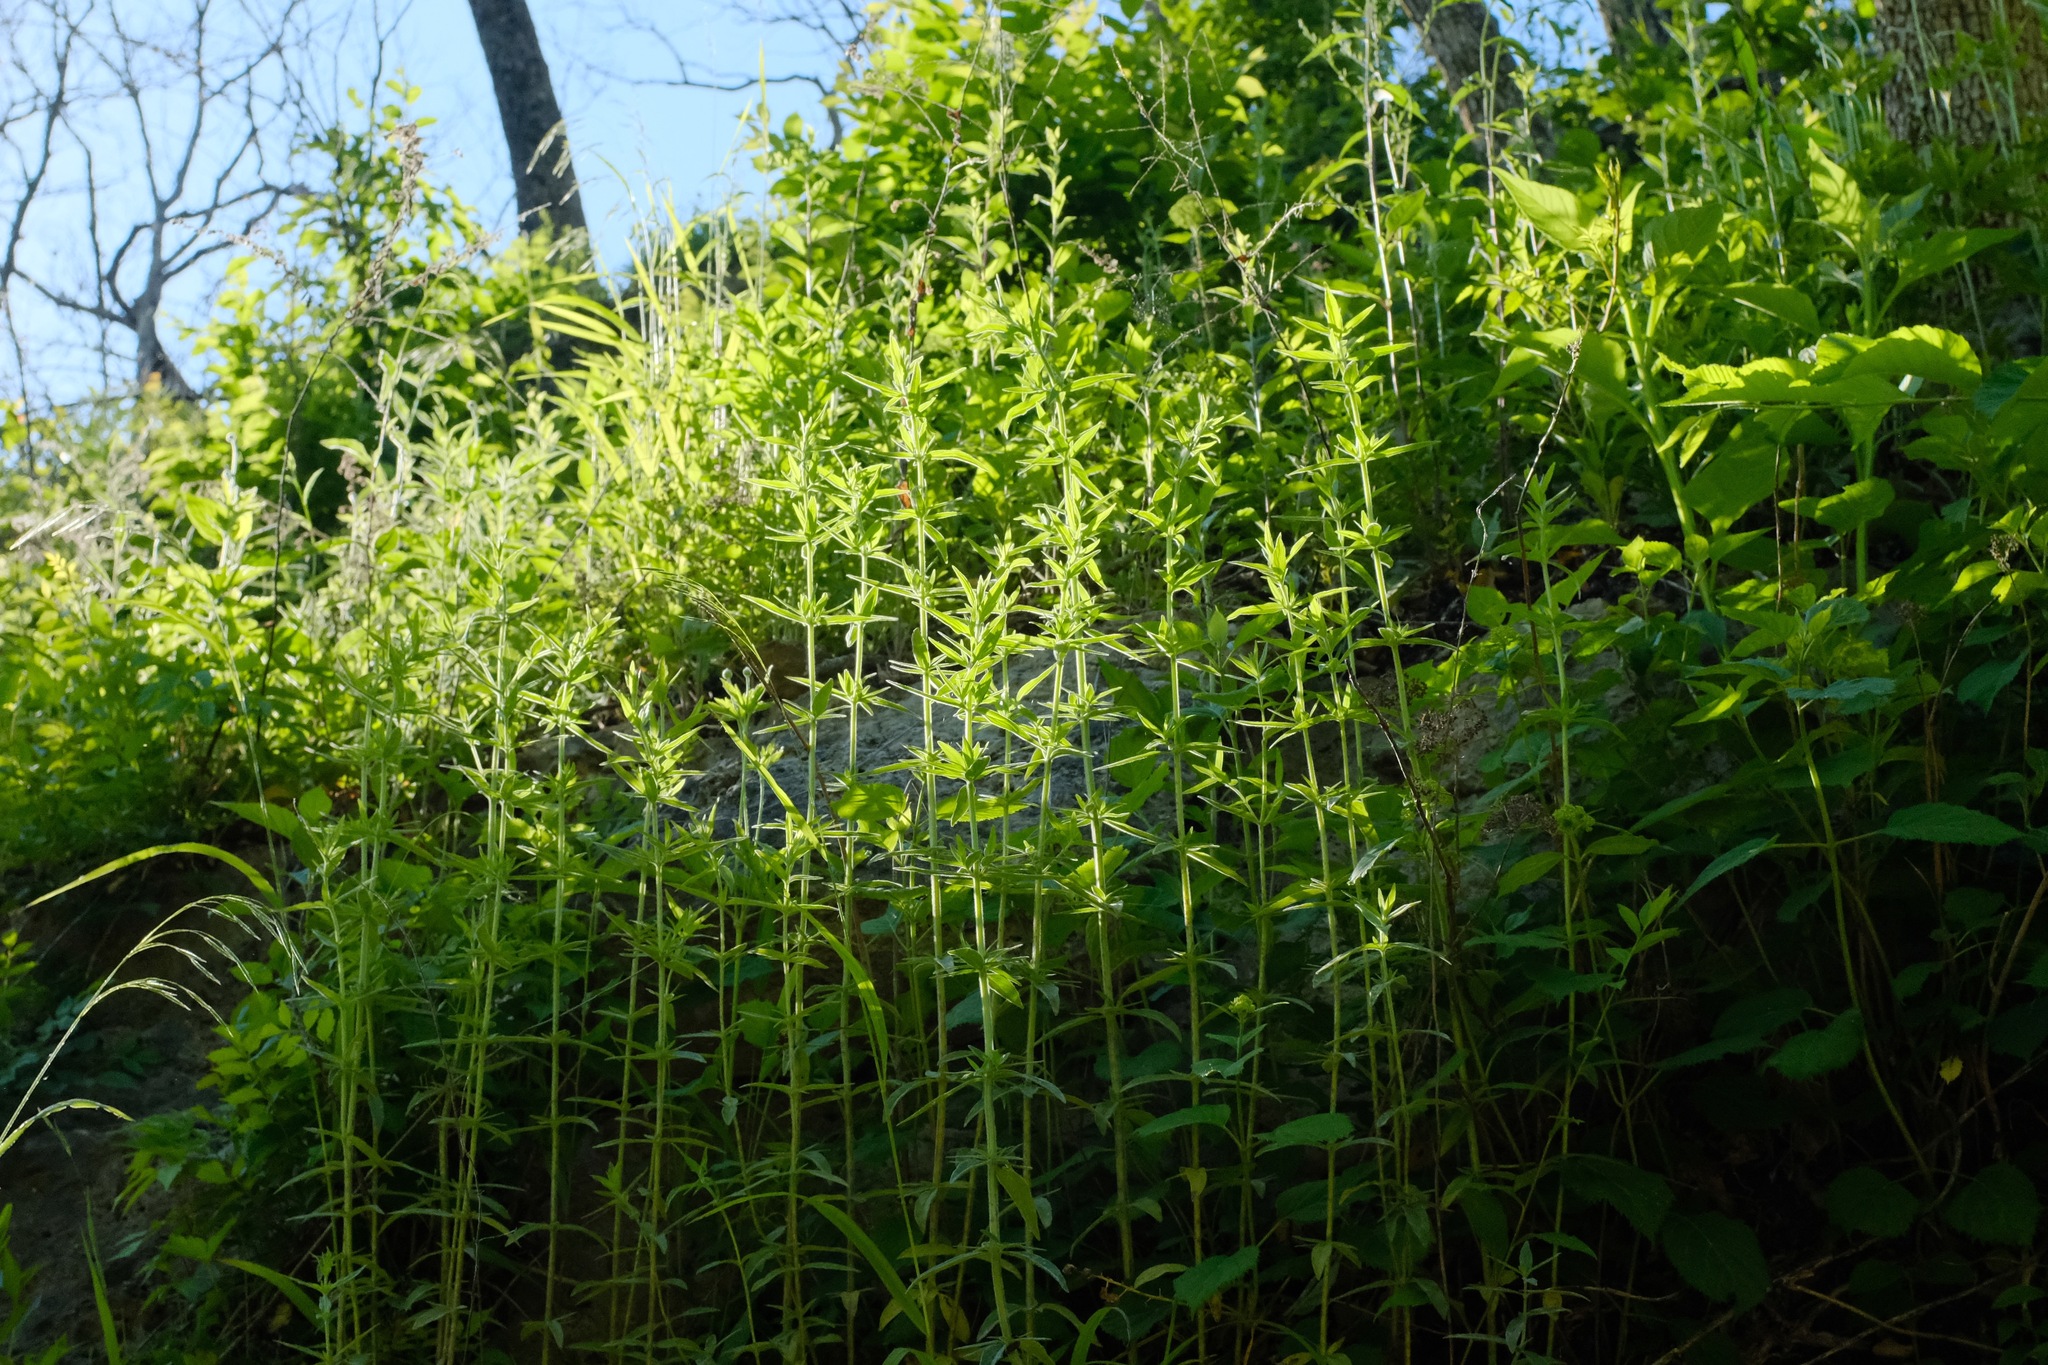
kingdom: Plantae
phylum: Tracheophyta
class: Magnoliopsida
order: Lamiales
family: Lamiaceae
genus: Pycnanthemum
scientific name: Pycnanthemum virginianum
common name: Virginia mountain-mint
